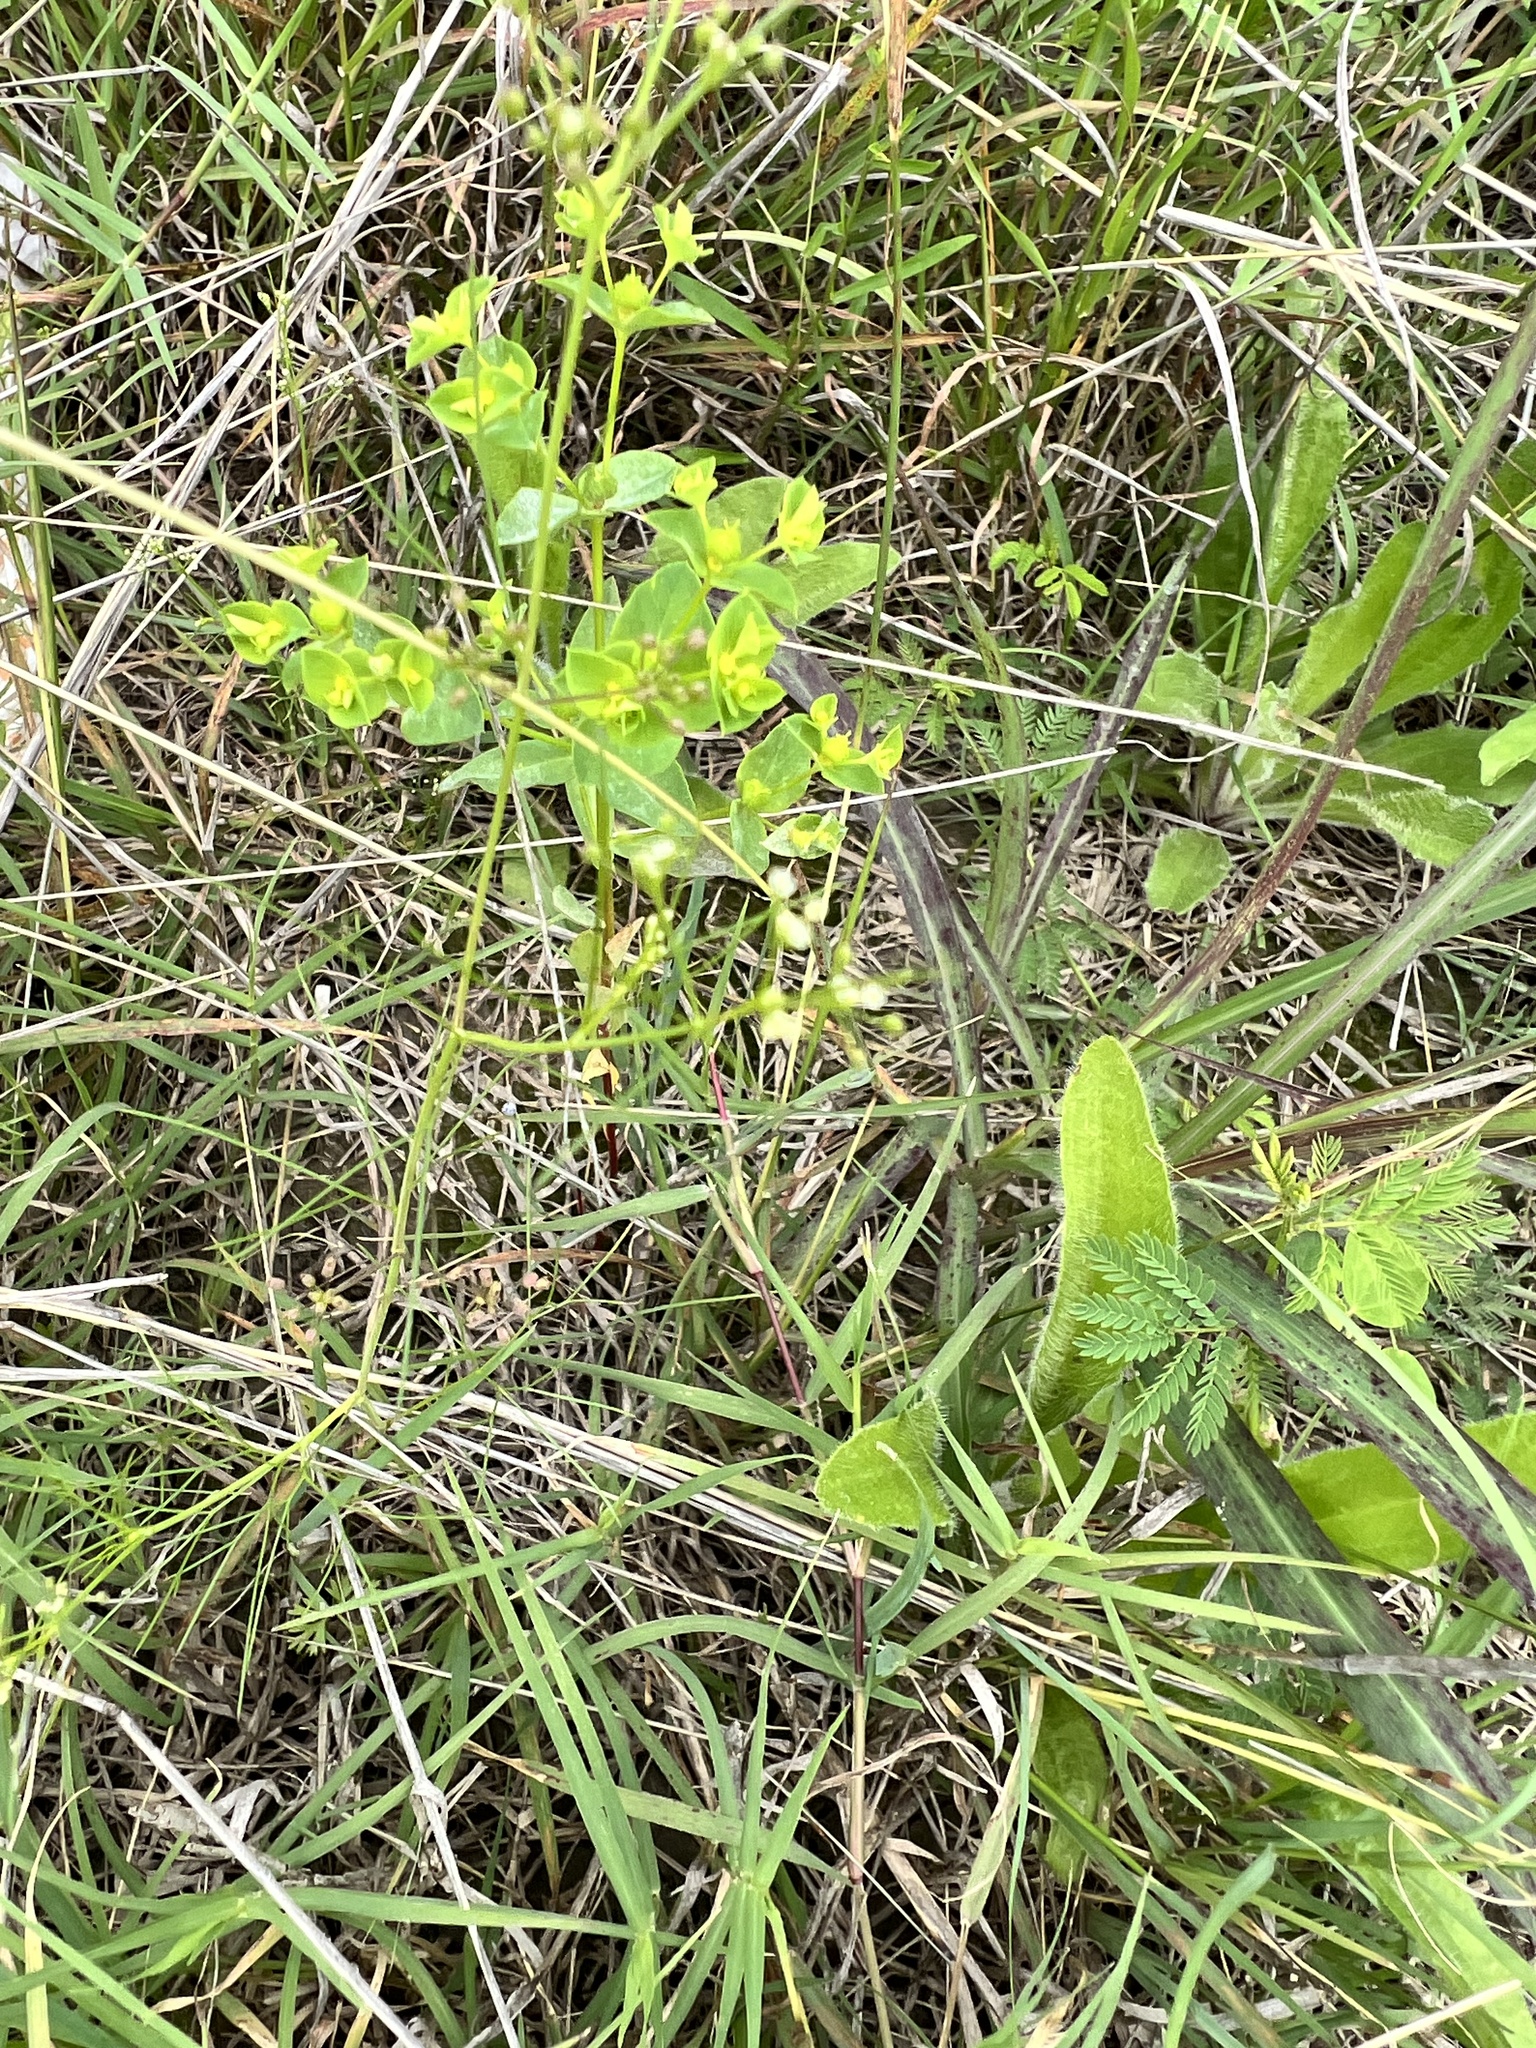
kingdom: Plantae
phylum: Tracheophyta
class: Magnoliopsida
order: Malpighiales
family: Euphorbiaceae
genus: Euphorbia
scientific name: Euphorbia spathulata
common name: Blunt spurge
